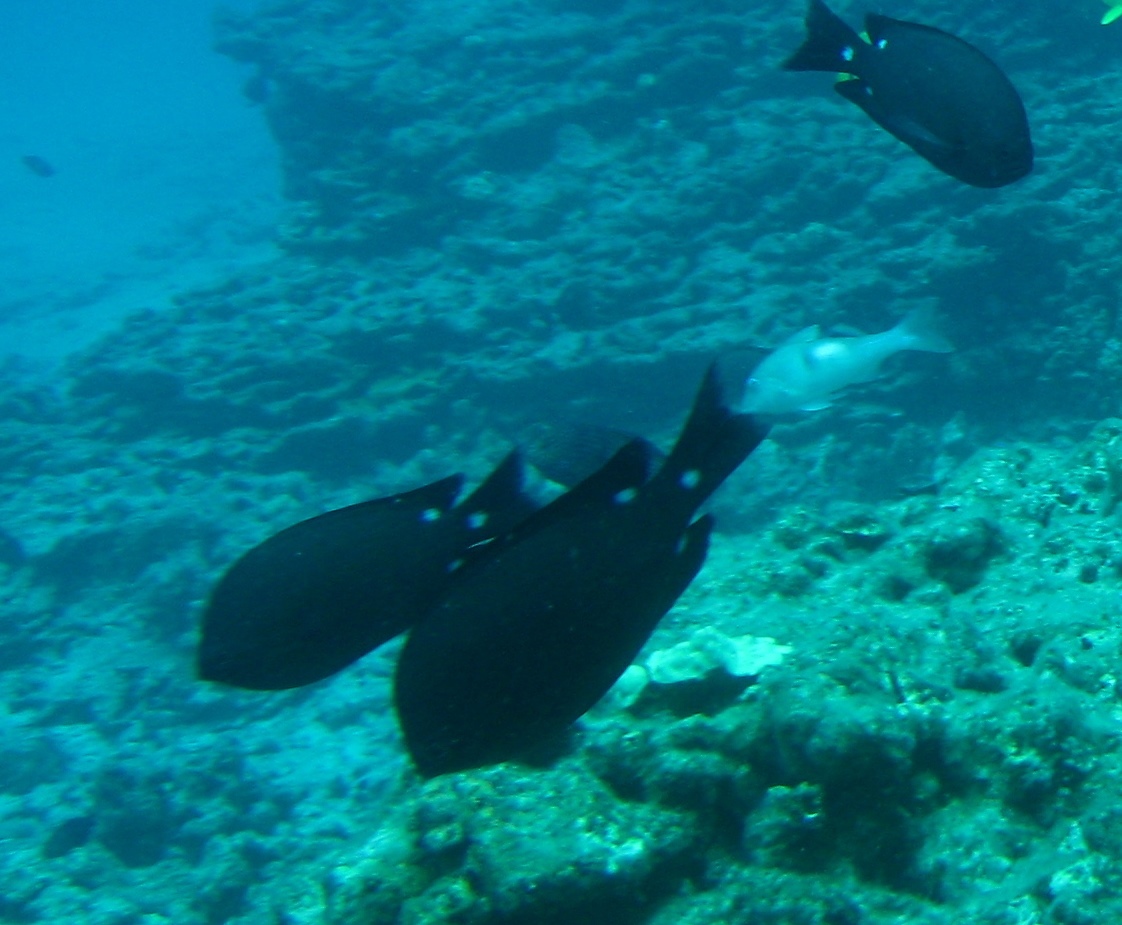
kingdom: Animalia
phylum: Chordata
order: Perciformes
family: Pomacentridae
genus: Chromis
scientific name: Chromis verater
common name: Threespot chromis
